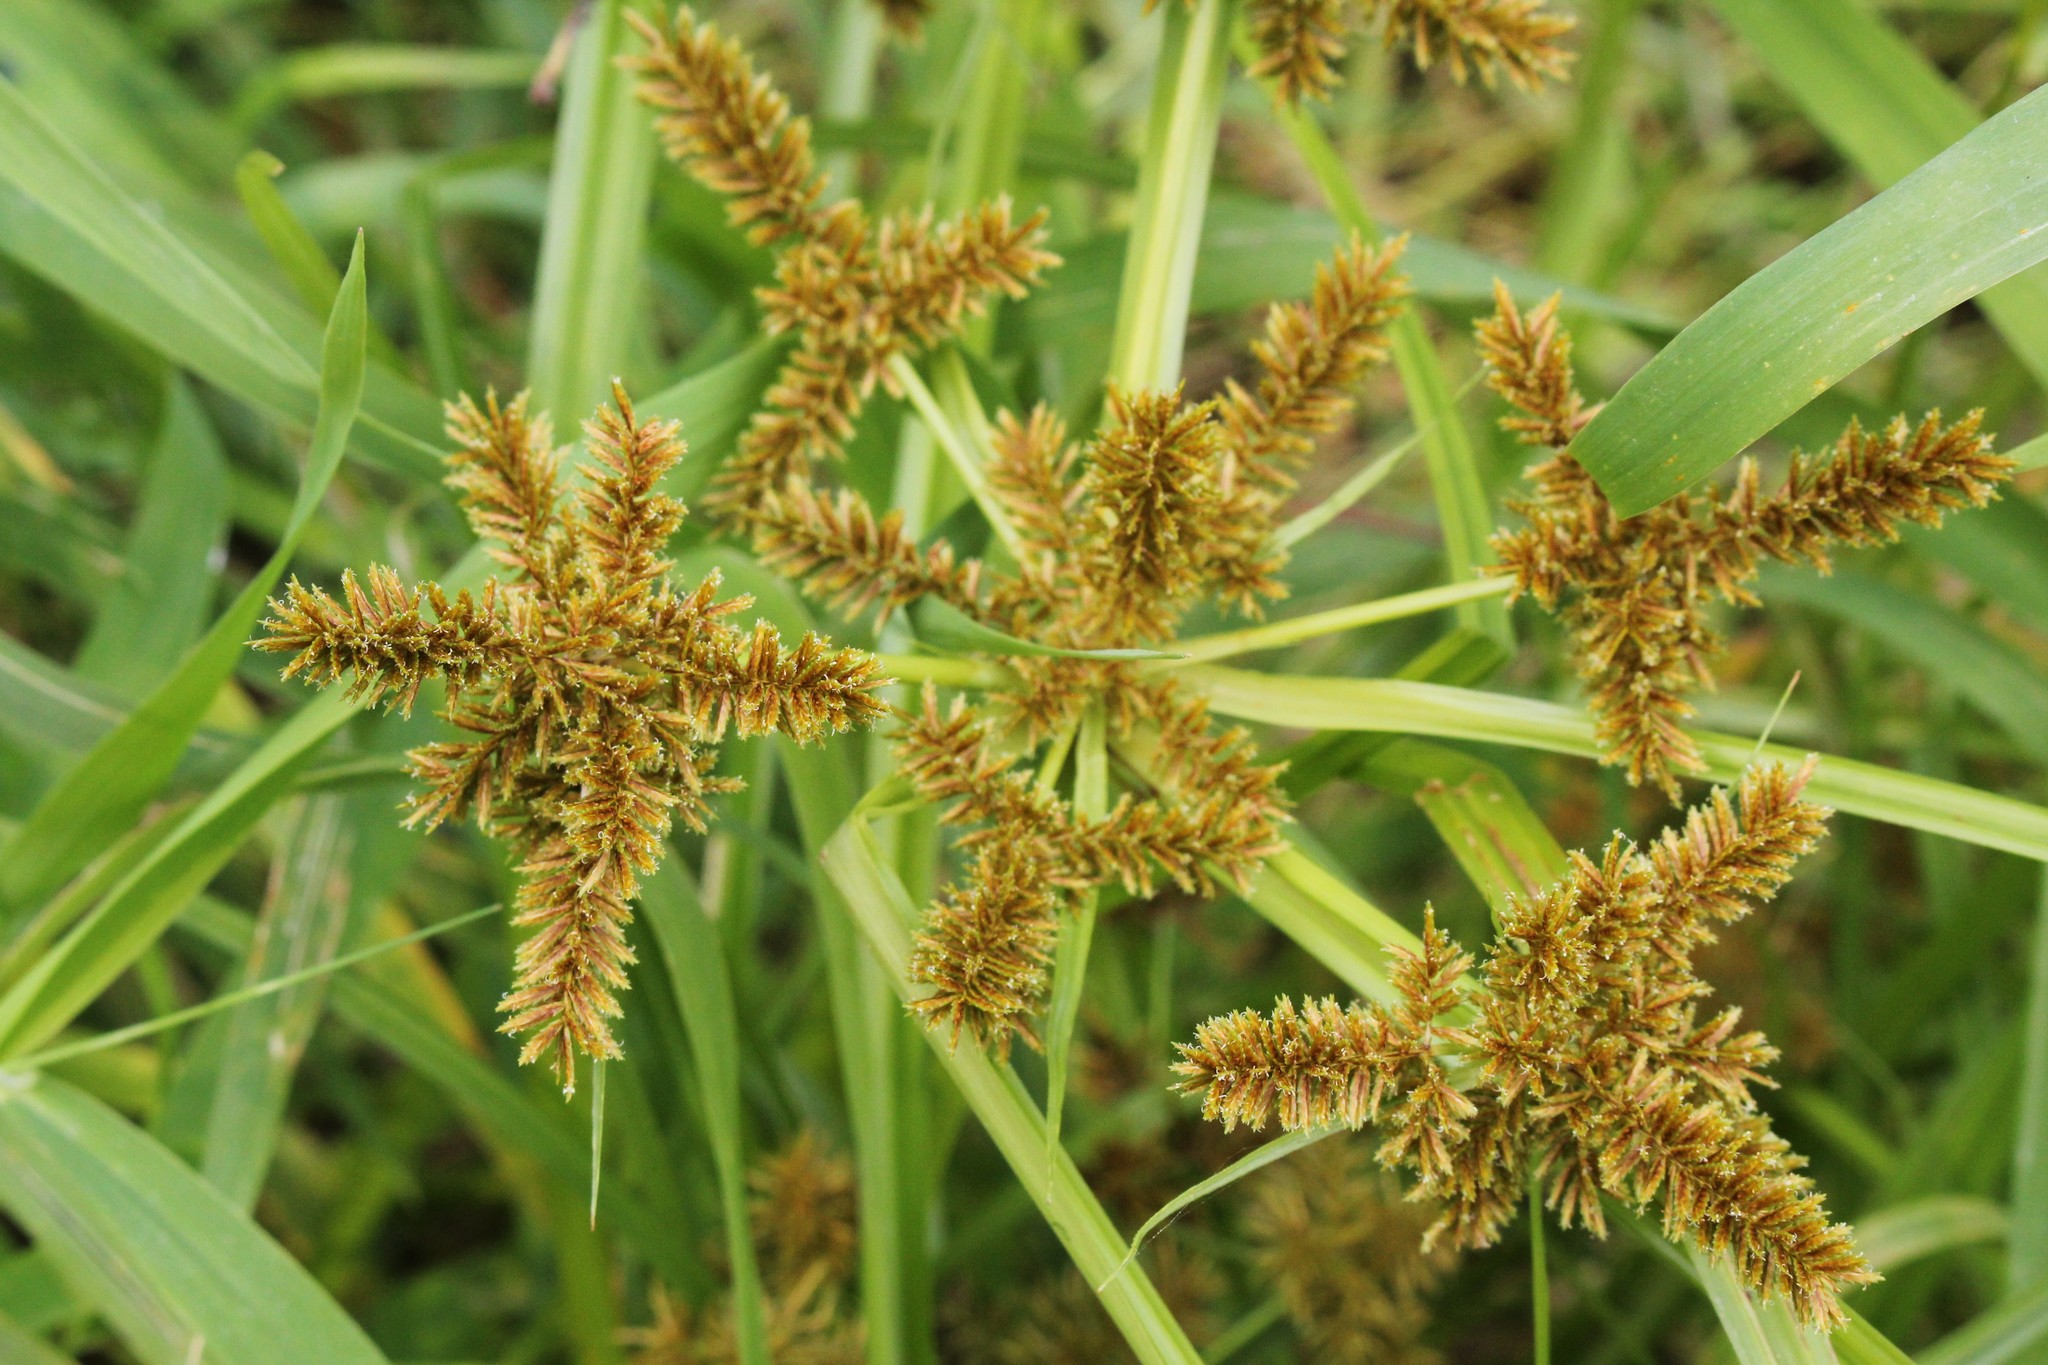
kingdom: Plantae
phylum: Tracheophyta
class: Liliopsida
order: Poales
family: Cyperaceae
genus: Cyperus
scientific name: Cyperus erythrorhizos
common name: Red-root flat sedge
